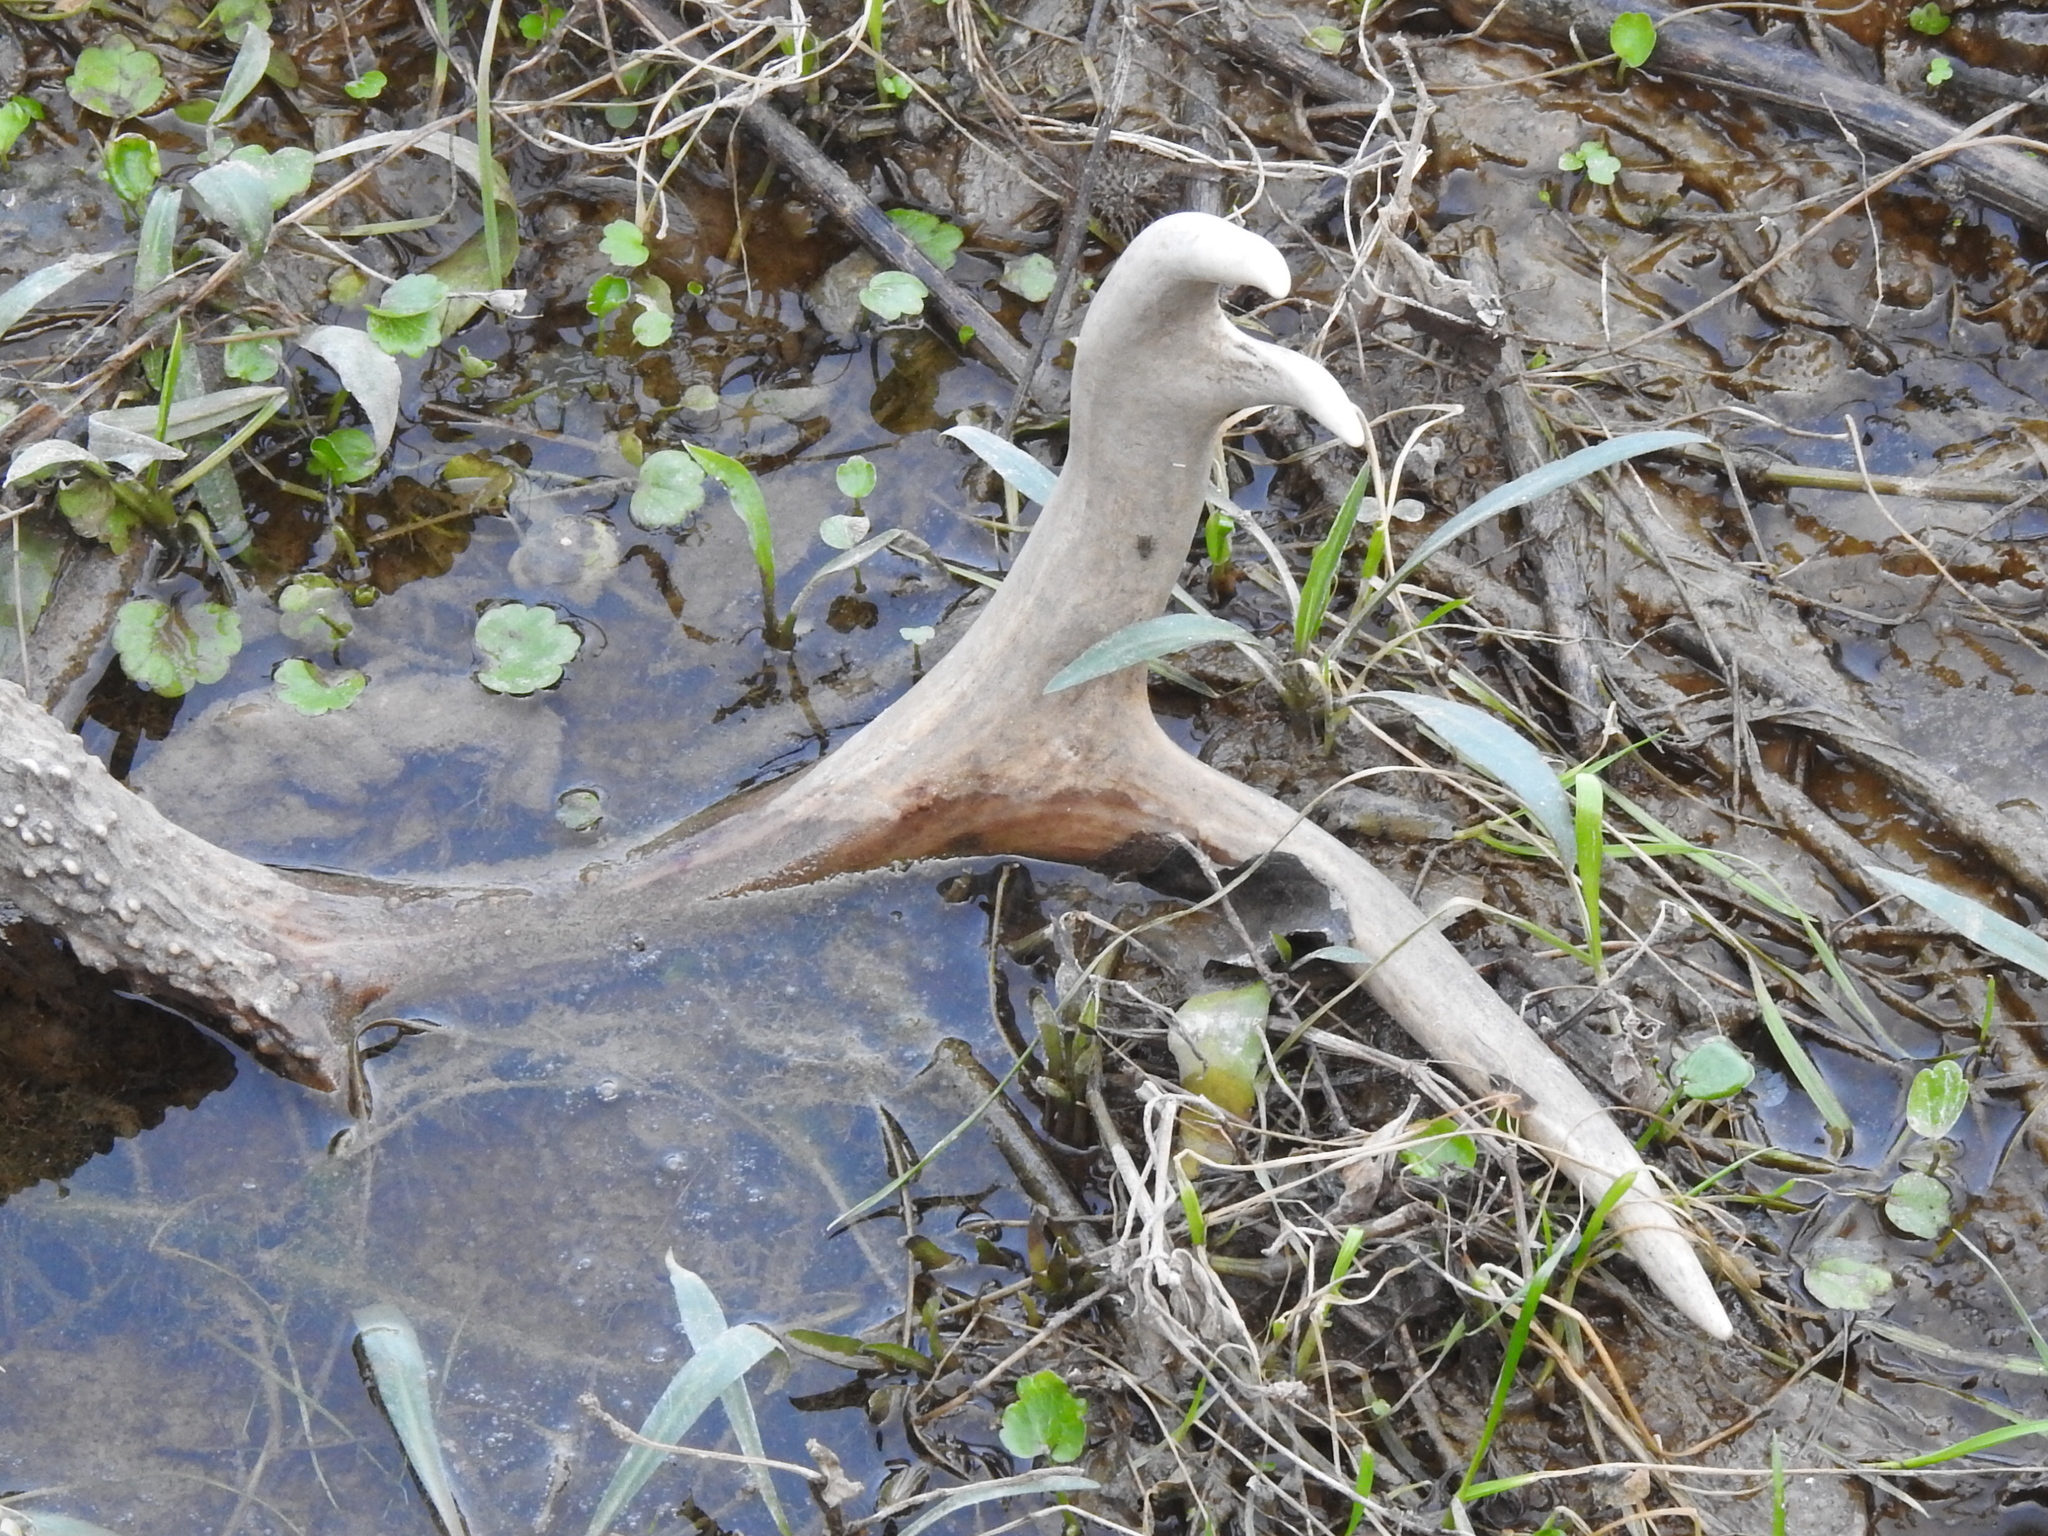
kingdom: Animalia
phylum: Chordata
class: Mammalia
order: Artiodactyla
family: Cervidae
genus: Odocoileus
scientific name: Odocoileus virginianus
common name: White-tailed deer
